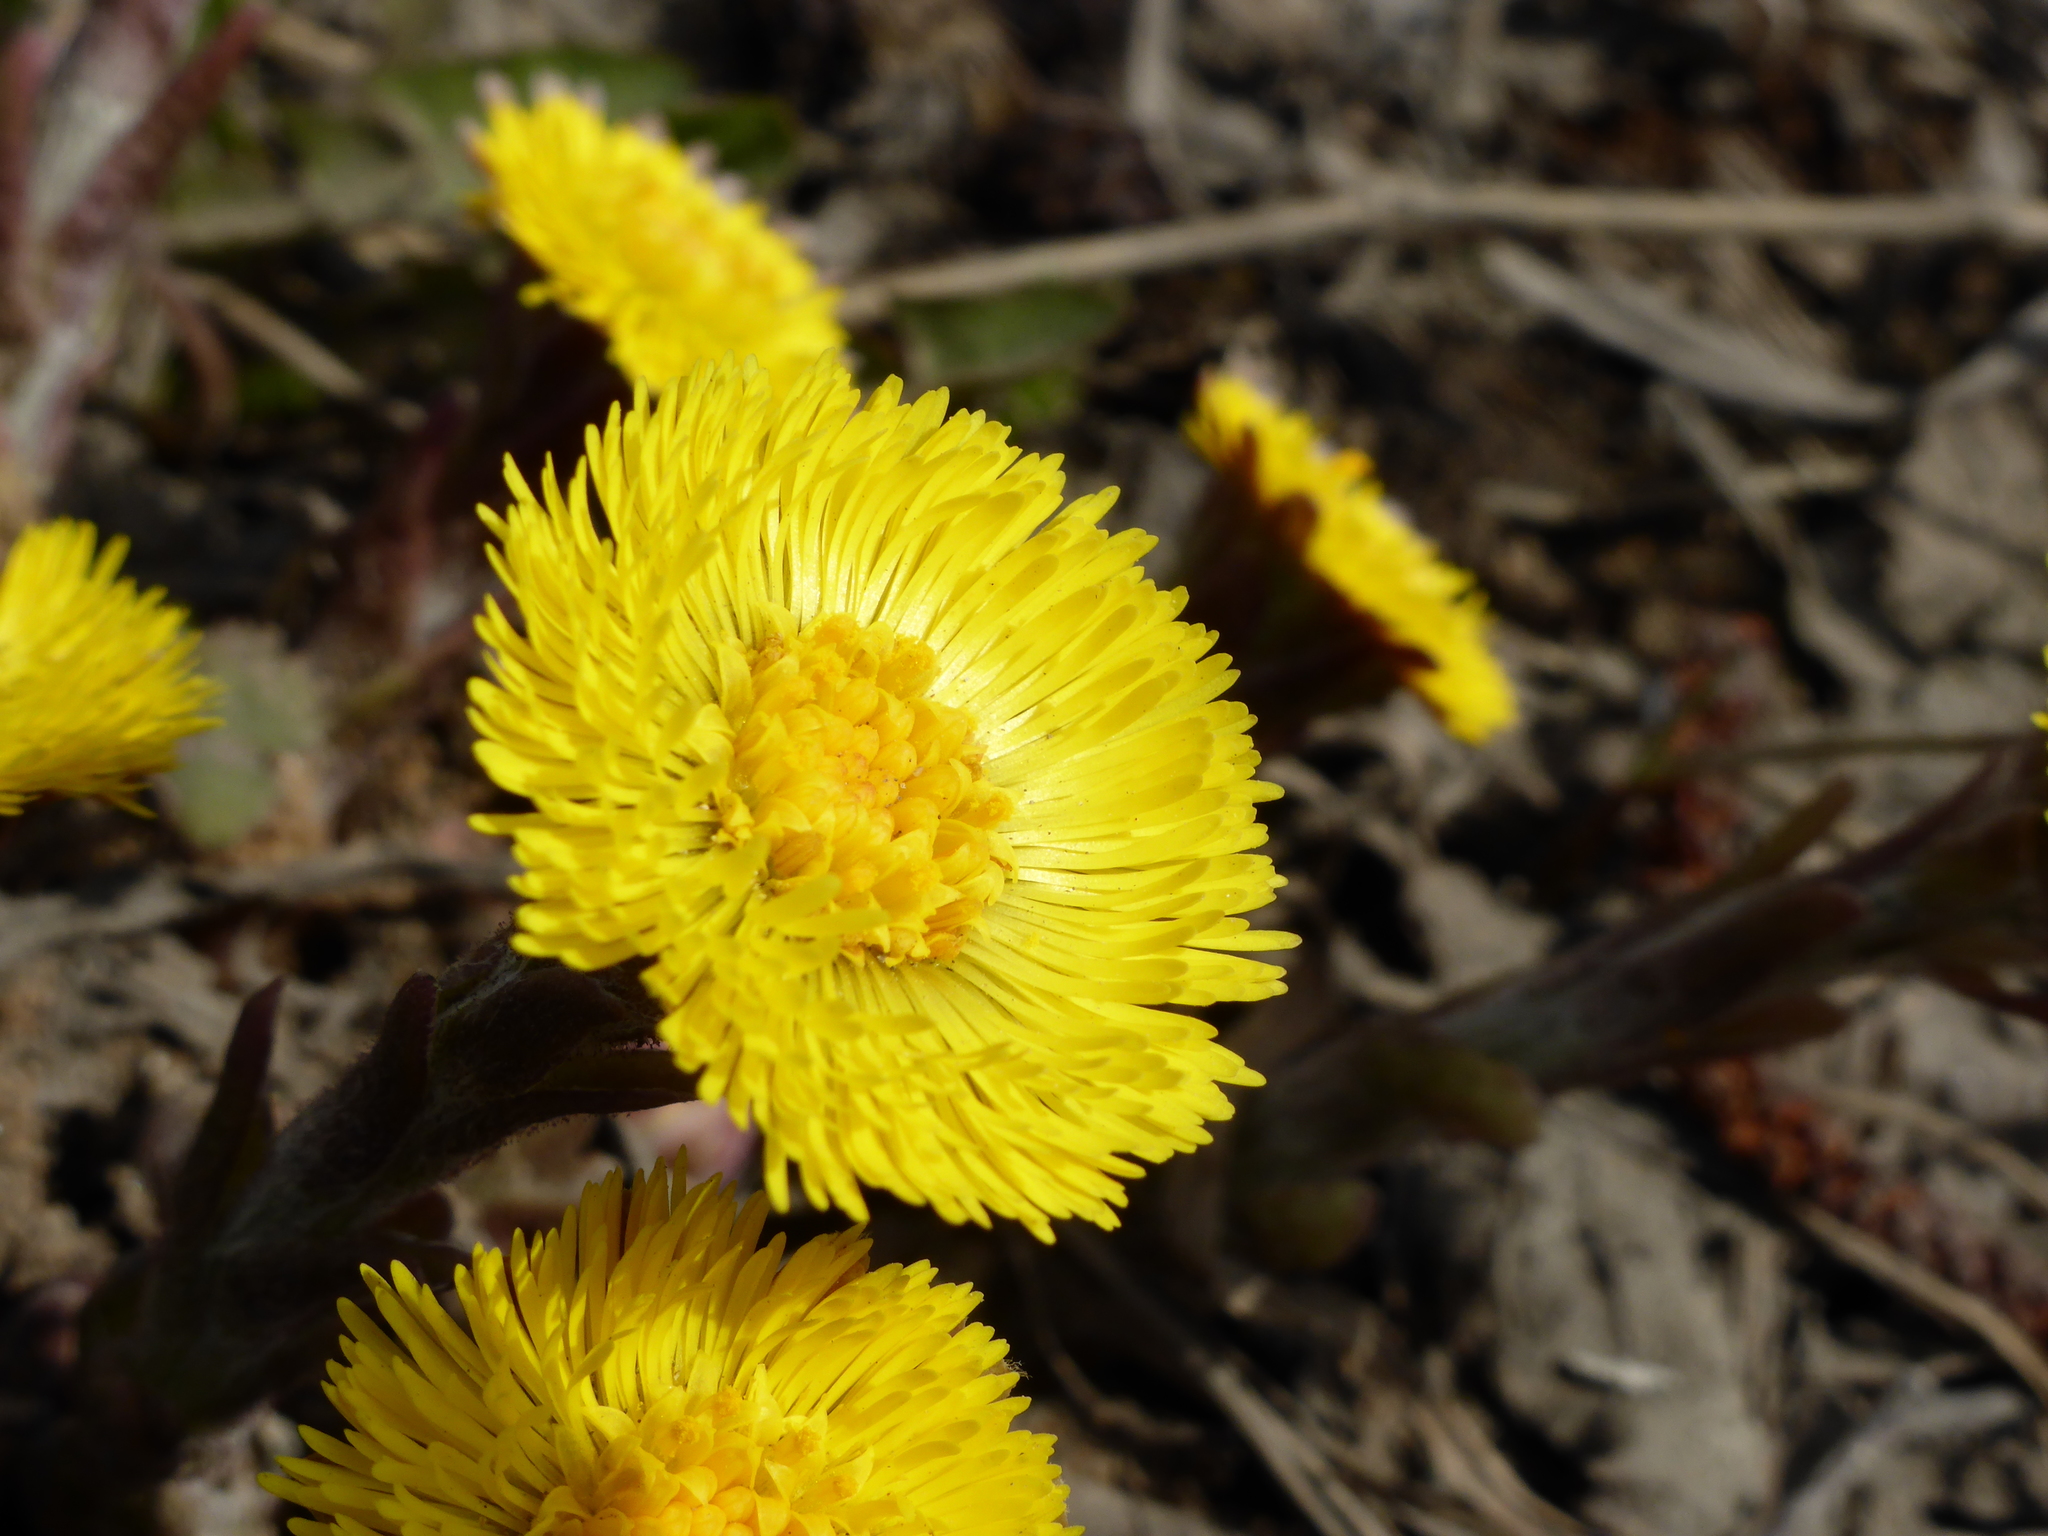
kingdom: Plantae
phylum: Tracheophyta
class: Magnoliopsida
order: Asterales
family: Asteraceae
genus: Tussilago
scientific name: Tussilago farfara
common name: Coltsfoot
